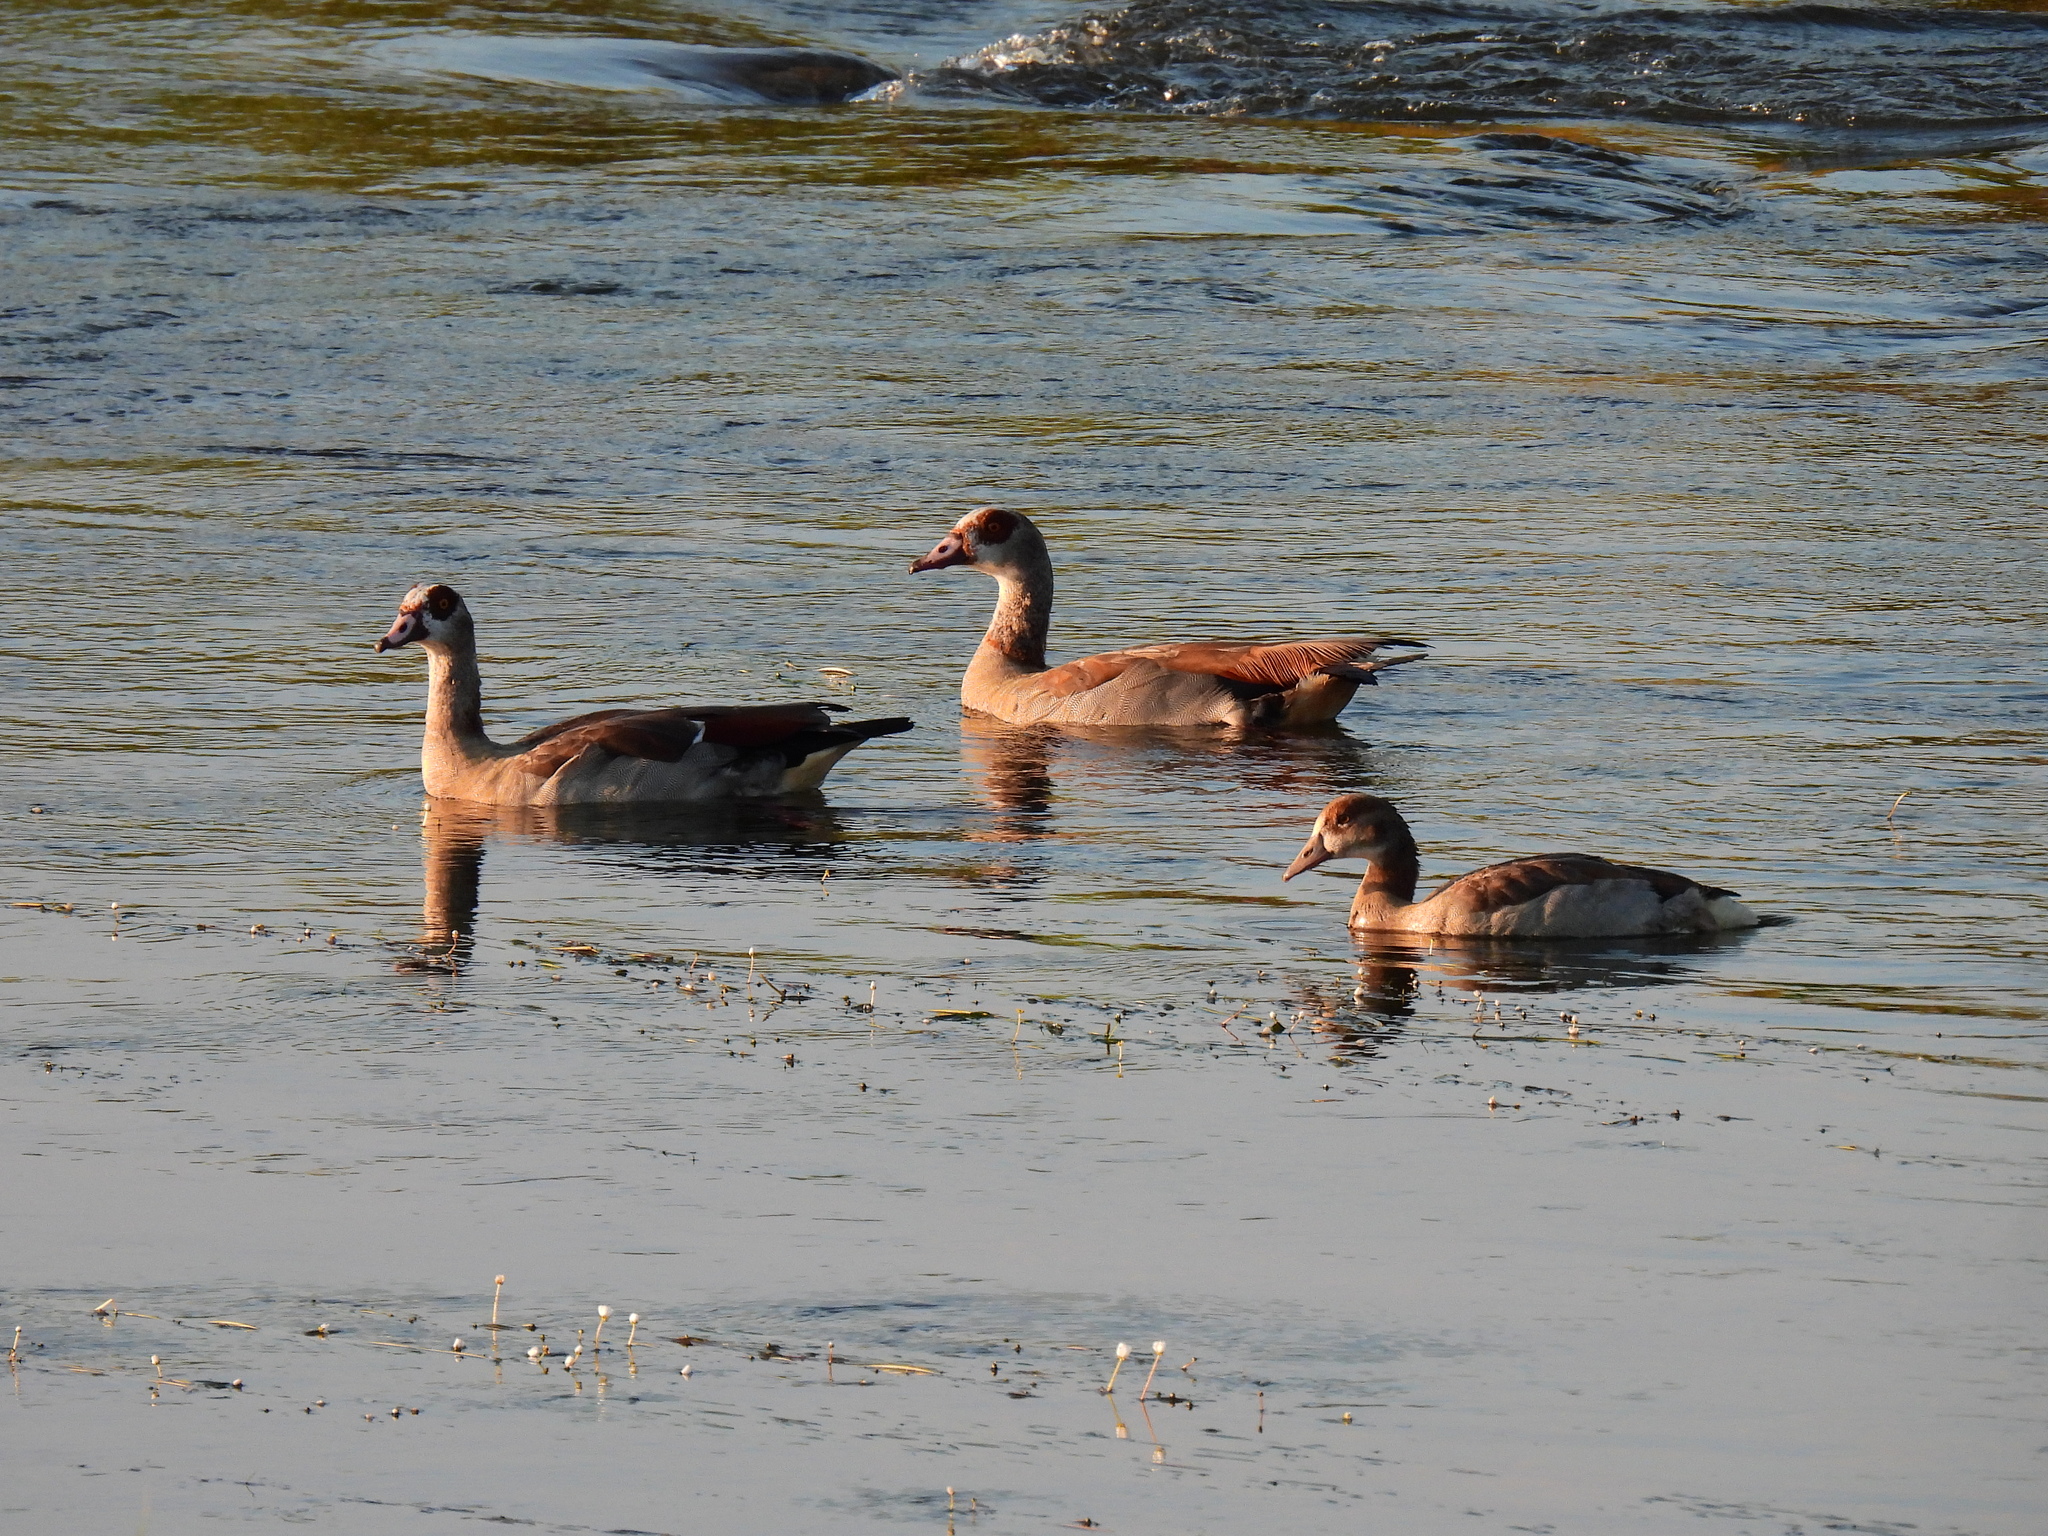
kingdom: Animalia
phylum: Chordata
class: Aves
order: Anseriformes
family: Anatidae
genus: Alopochen
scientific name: Alopochen aegyptiaca
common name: Egyptian goose
